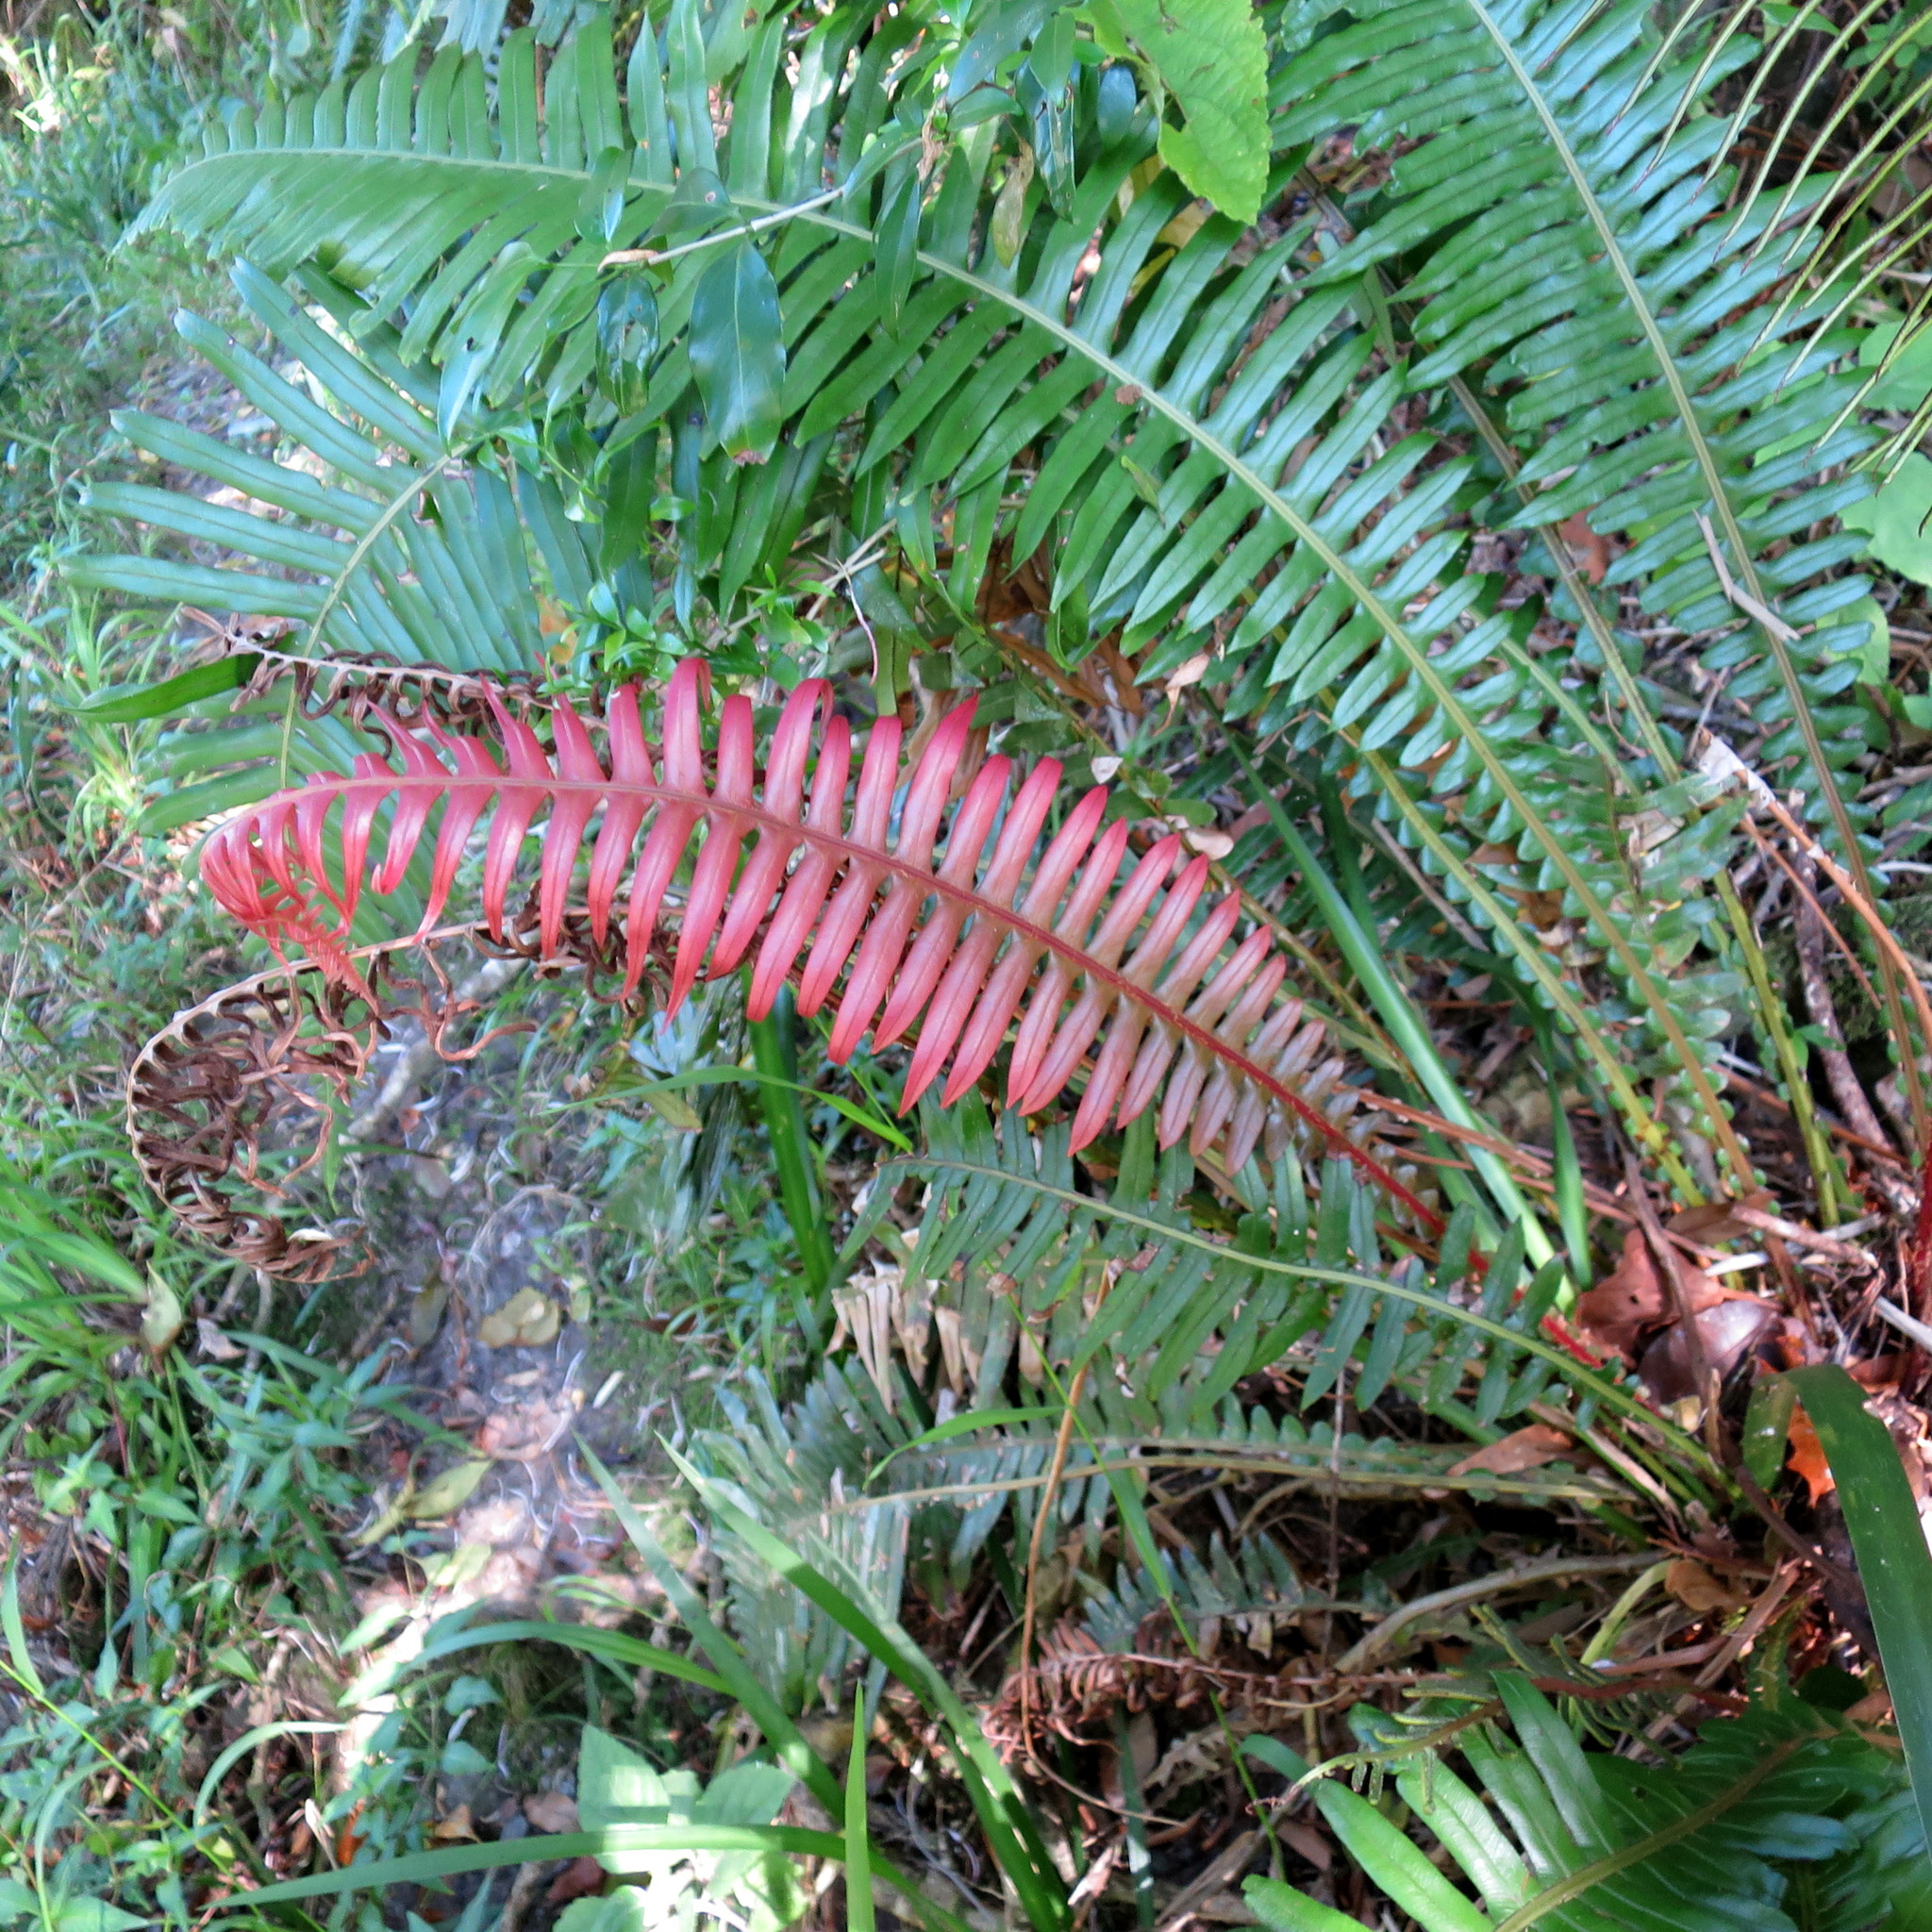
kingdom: Plantae
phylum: Tracheophyta
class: Polypodiopsida
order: Polypodiales
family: Blechnaceae
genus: Lomaridium
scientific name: Lomaridium attenuatum
